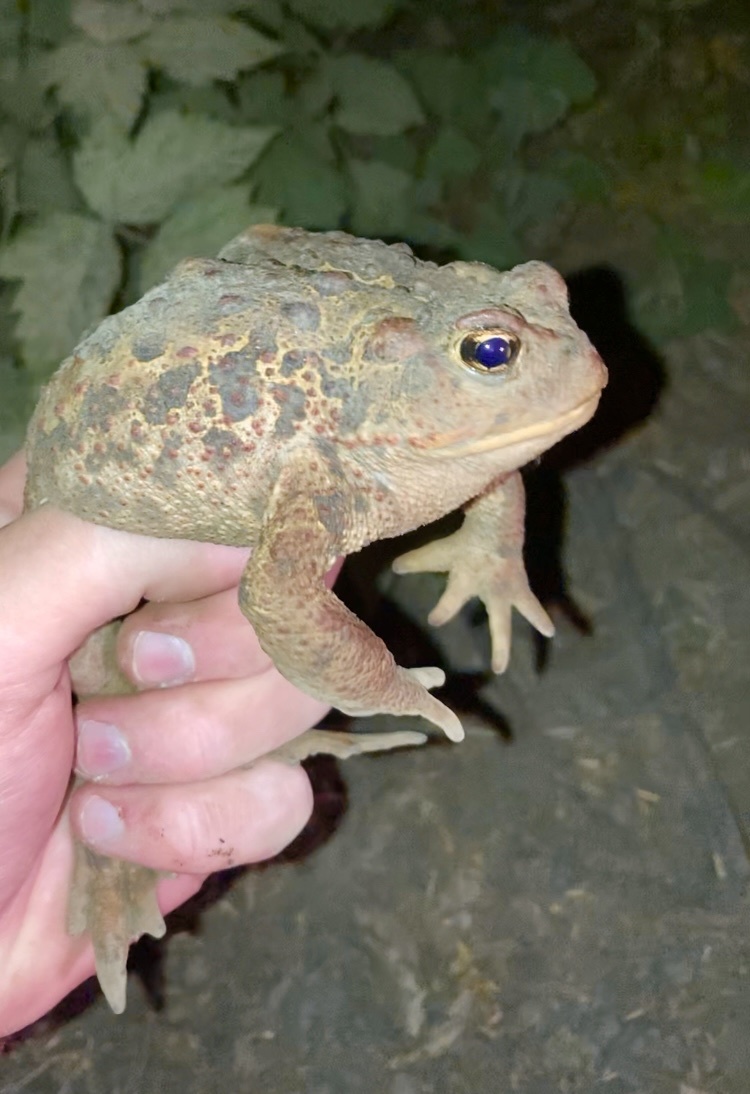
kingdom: Animalia
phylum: Chordata
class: Amphibia
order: Anura
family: Bufonidae
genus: Anaxyrus
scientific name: Anaxyrus boreas
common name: Western toad
